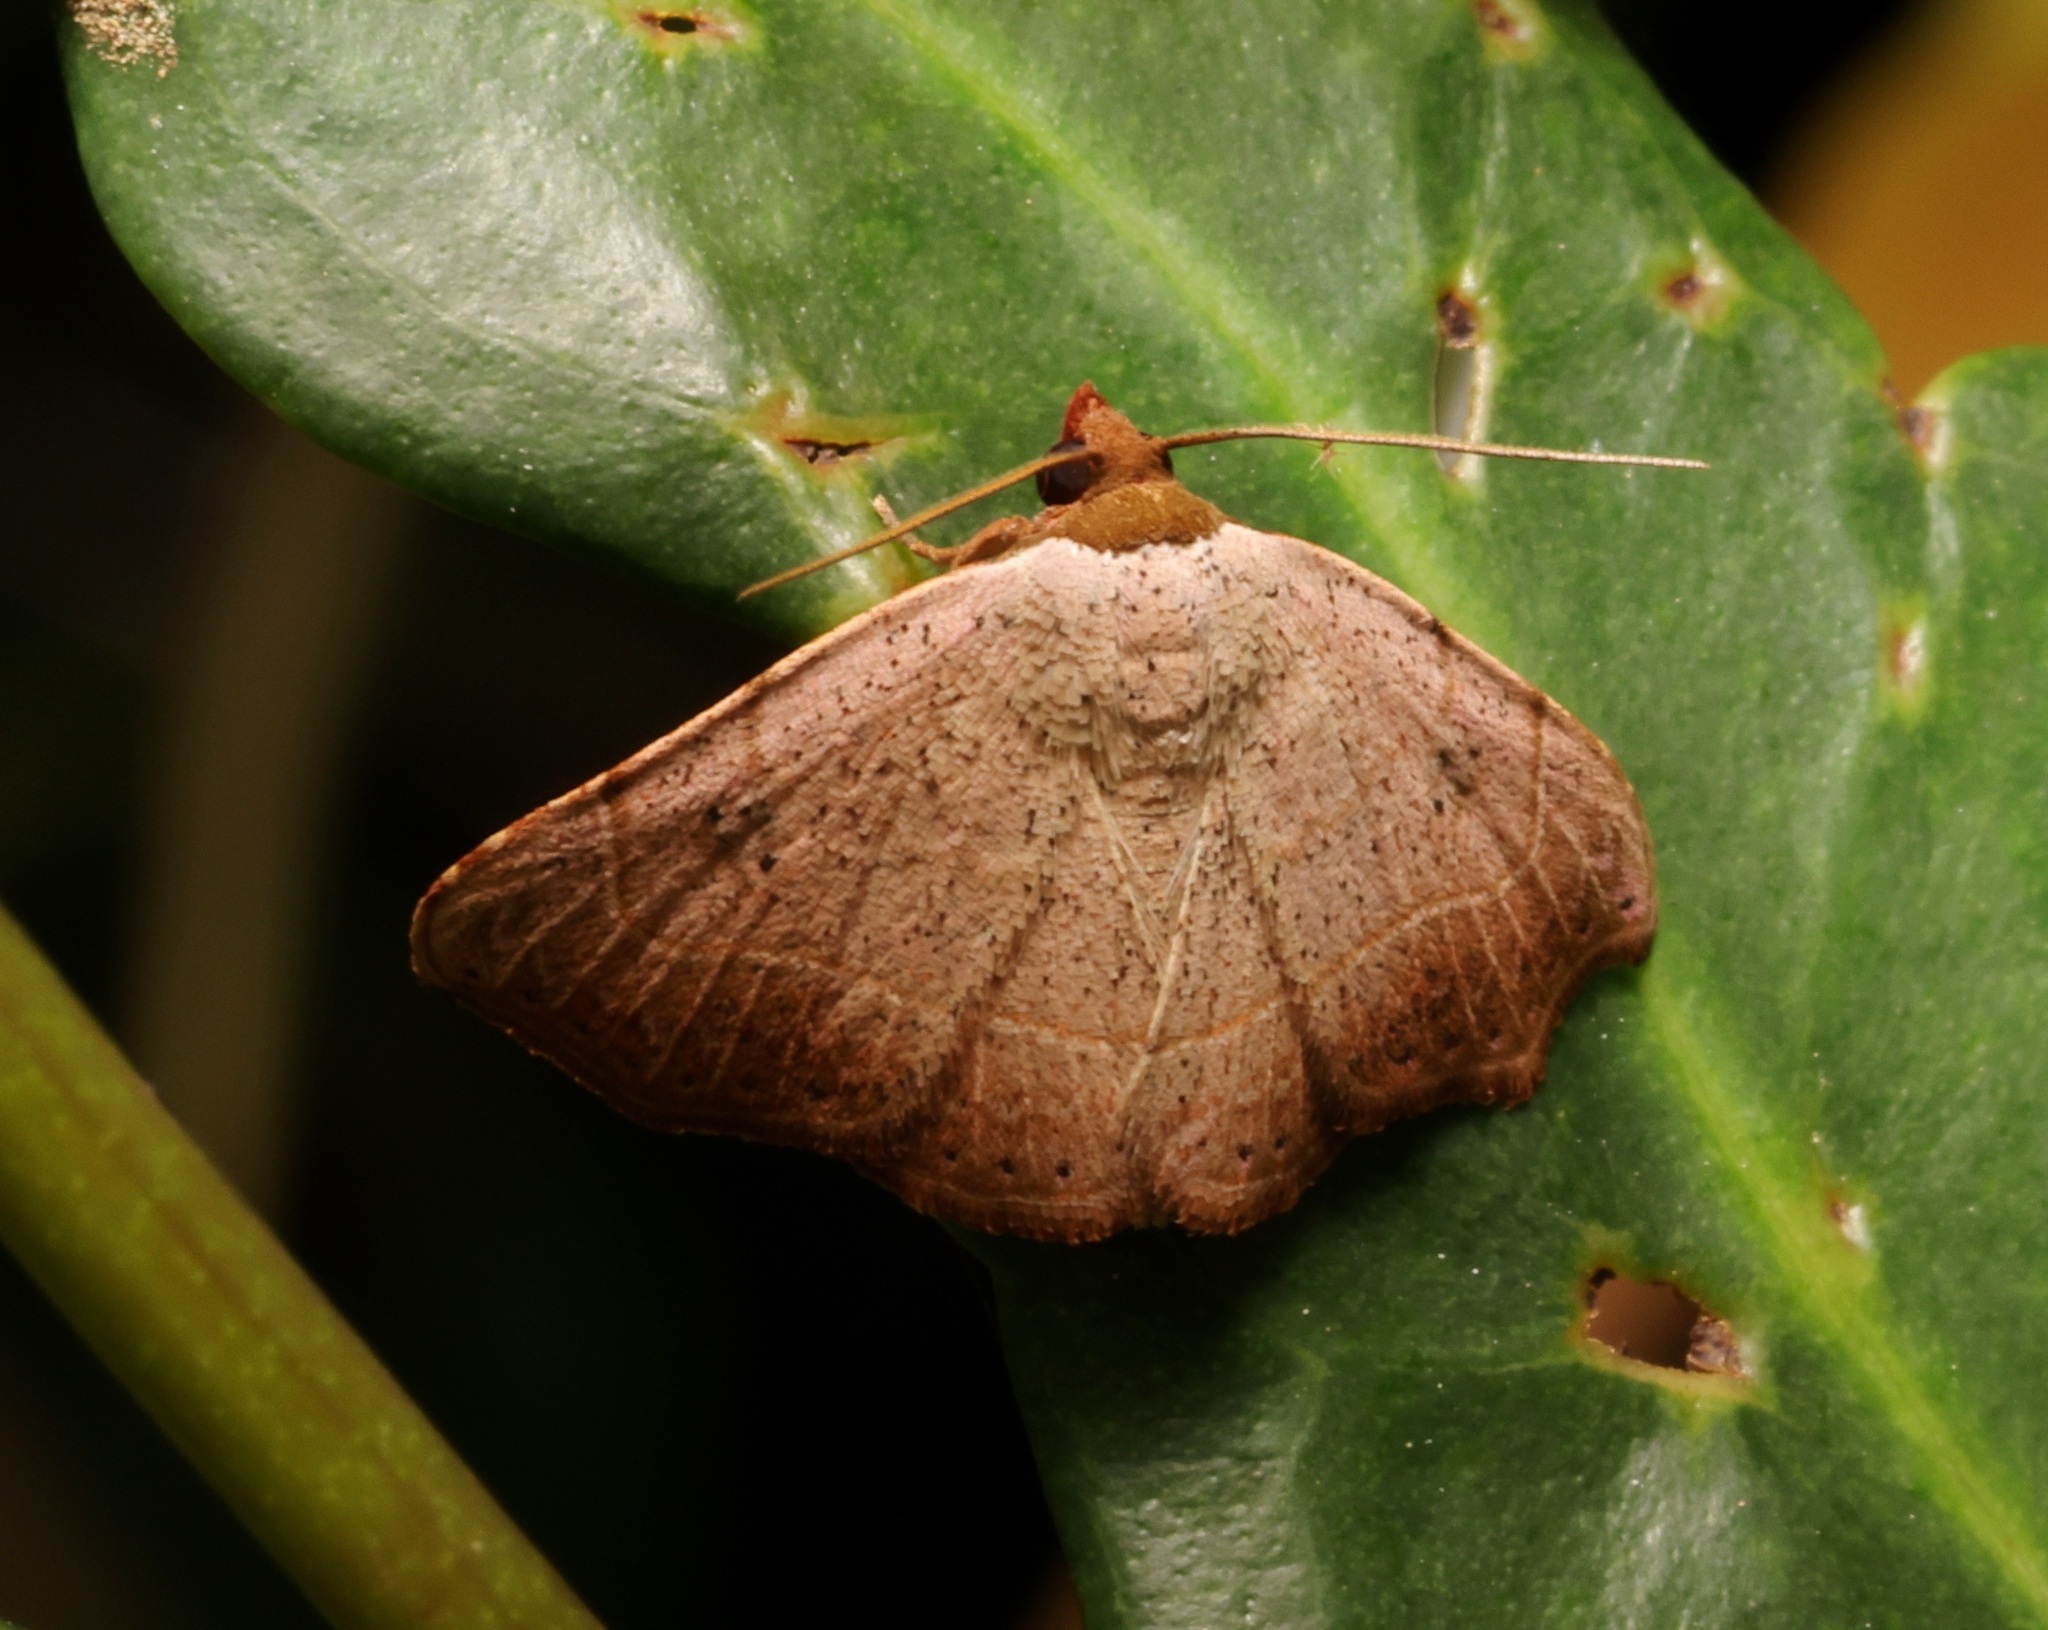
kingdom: Animalia
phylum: Arthropoda
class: Insecta
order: Lepidoptera
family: Erebidae
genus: Laspeyria
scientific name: Laspeyria ruficeps
